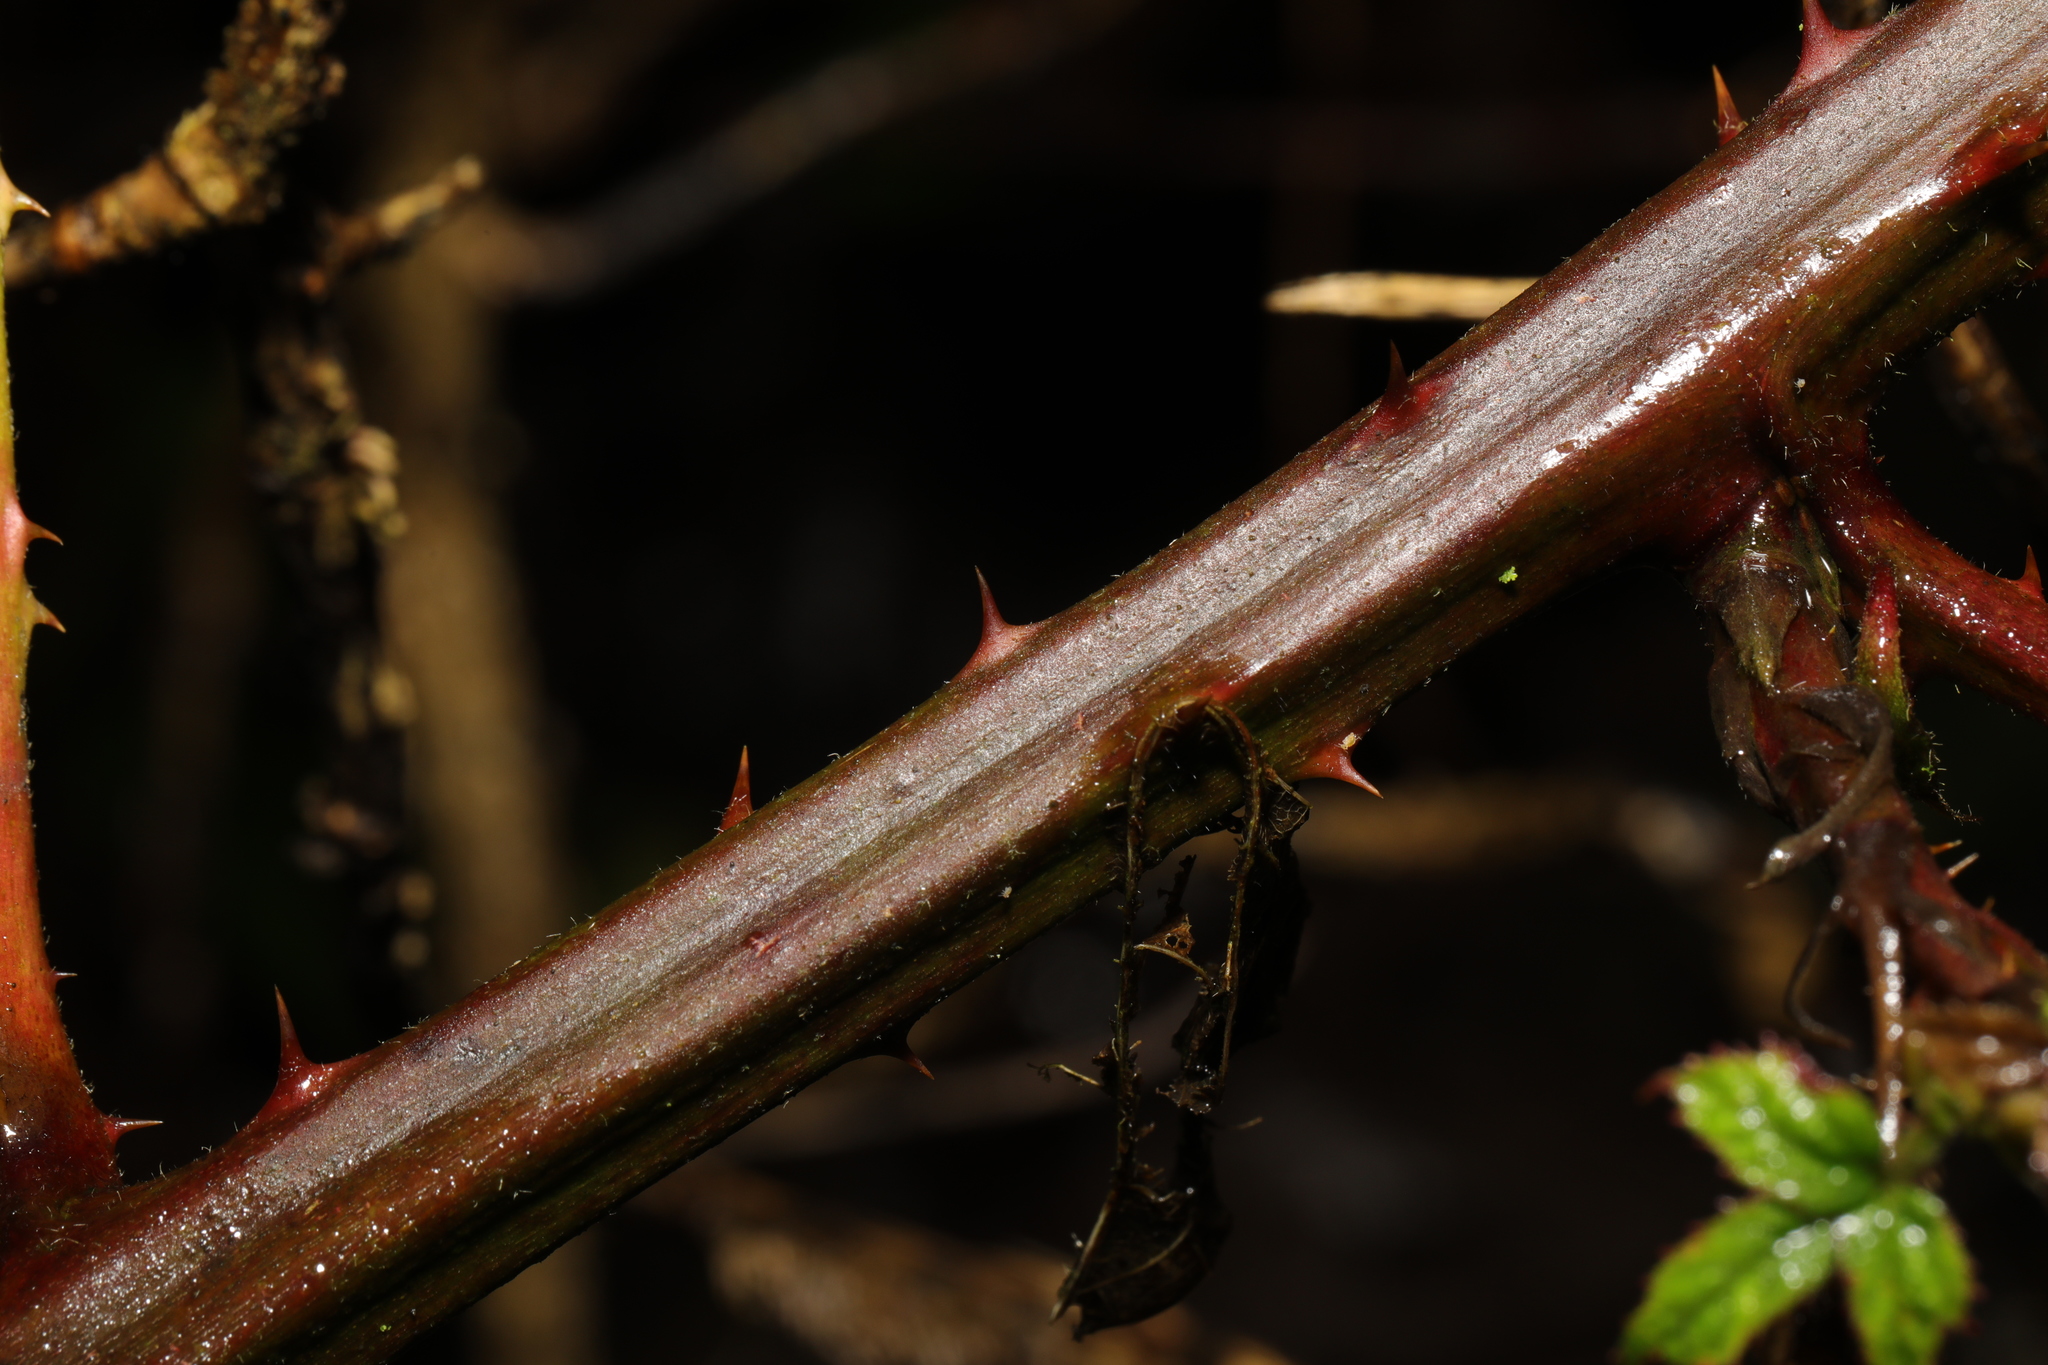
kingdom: Plantae
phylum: Tracheophyta
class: Magnoliopsida
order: Rosales
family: Rosaceae
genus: Rubus
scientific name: Rubus armeniacus
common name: Himalayan blackberry
